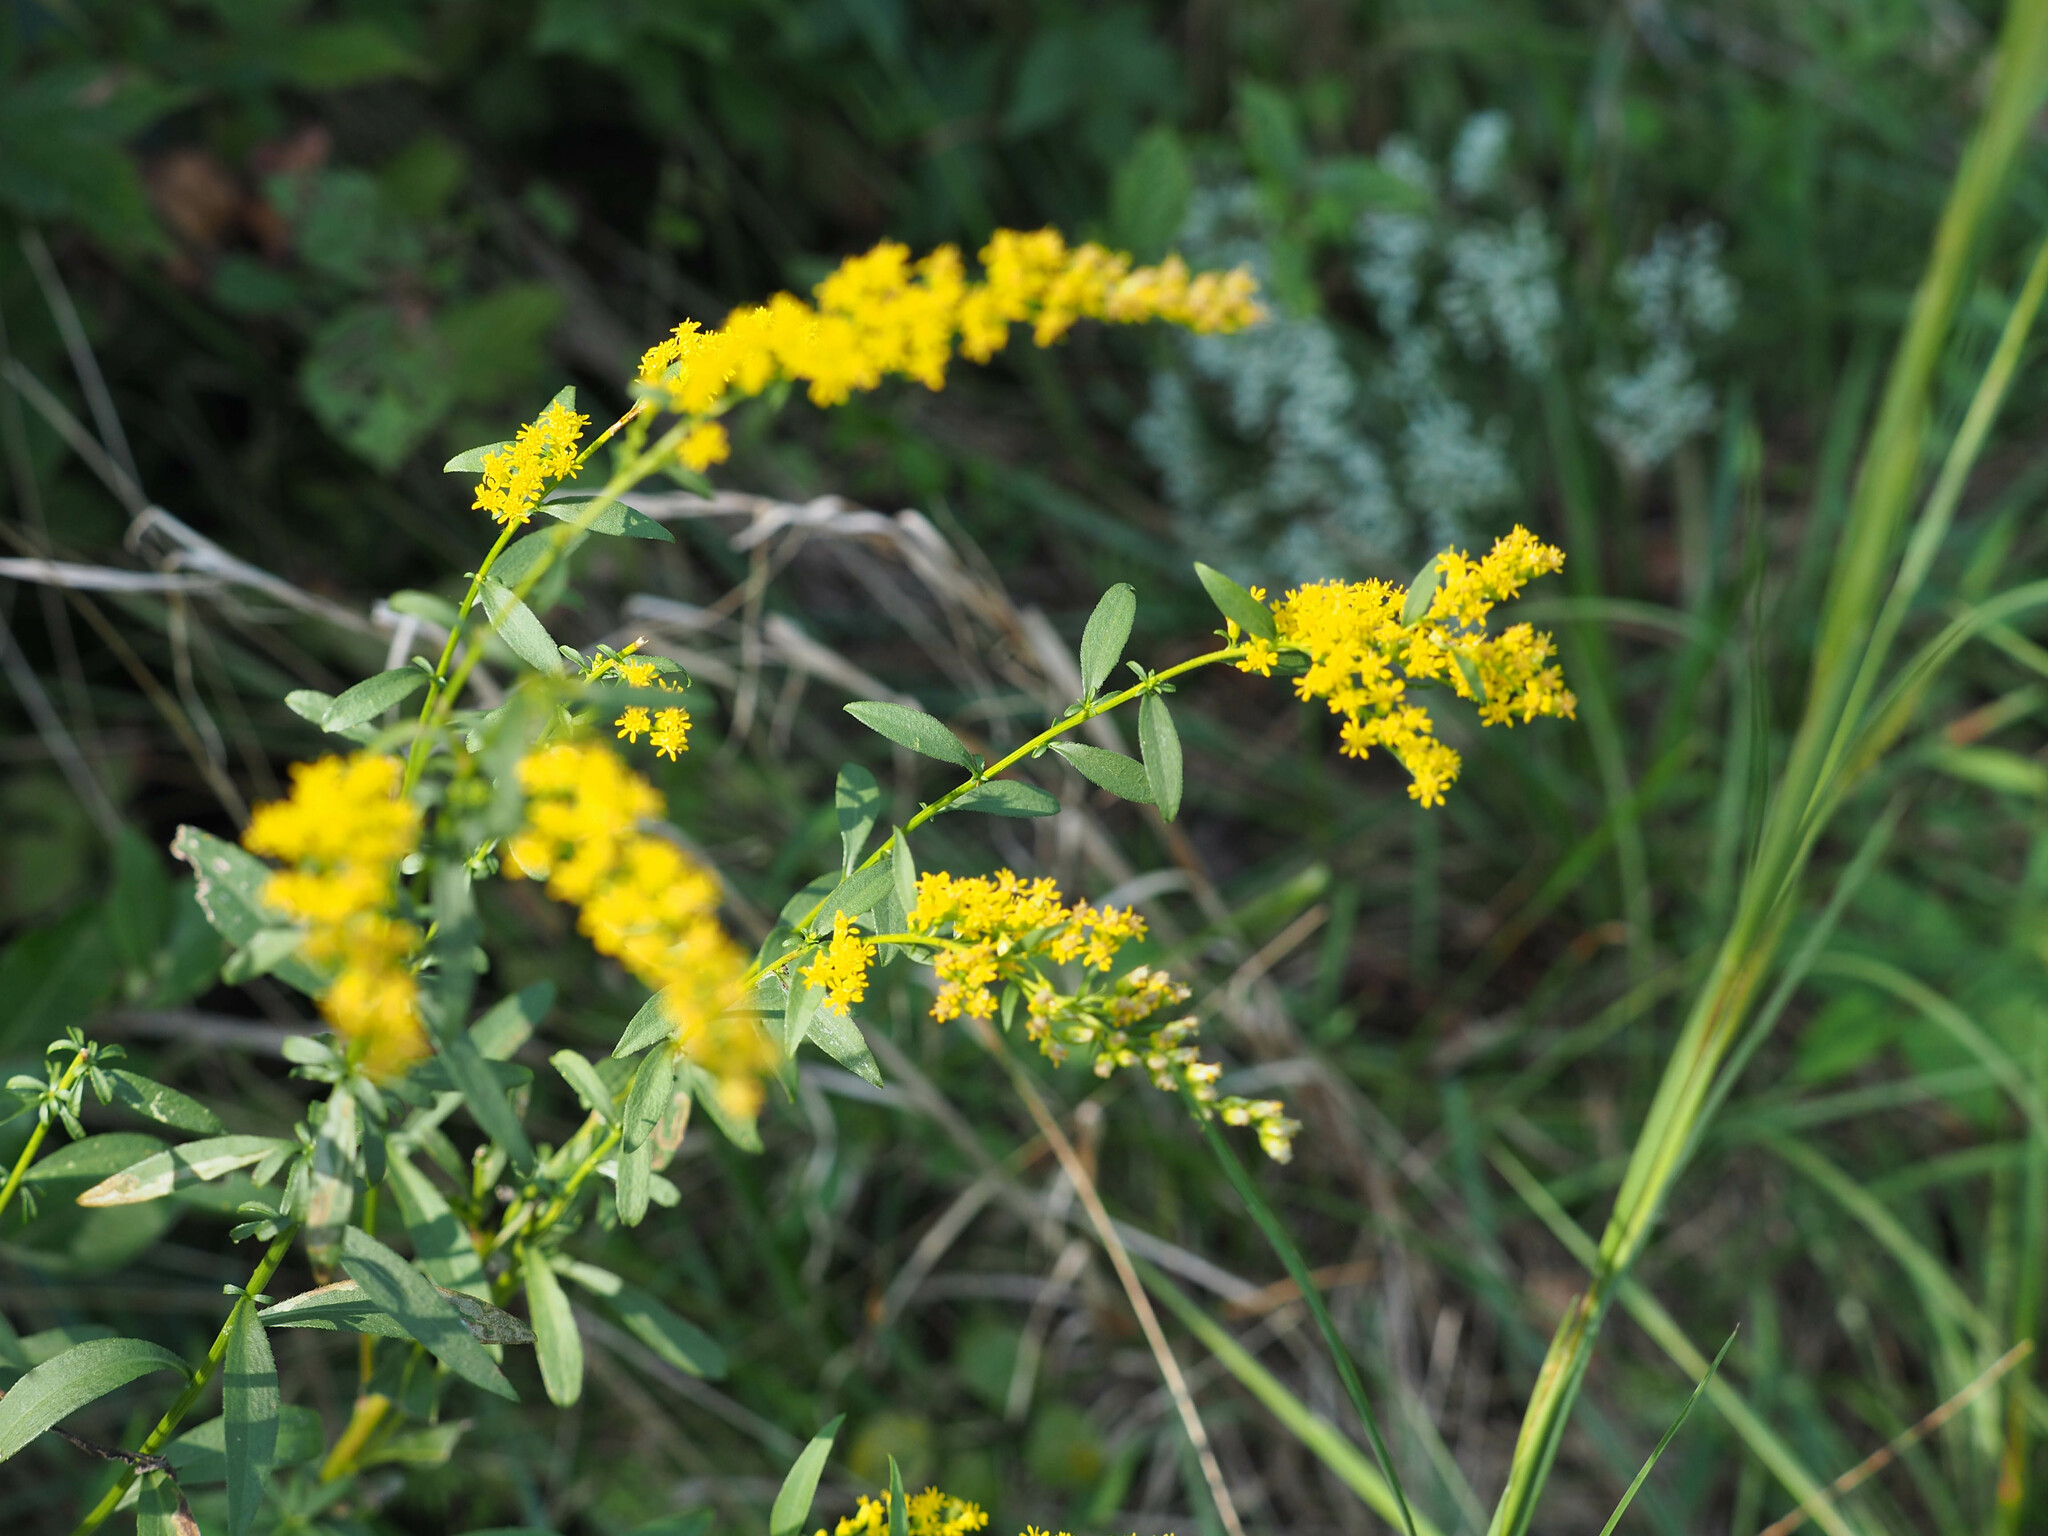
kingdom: Plantae
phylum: Tracheophyta
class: Magnoliopsida
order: Asterales
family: Asteraceae
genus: Solidago
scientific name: Solidago juncea
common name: Early goldenrod
